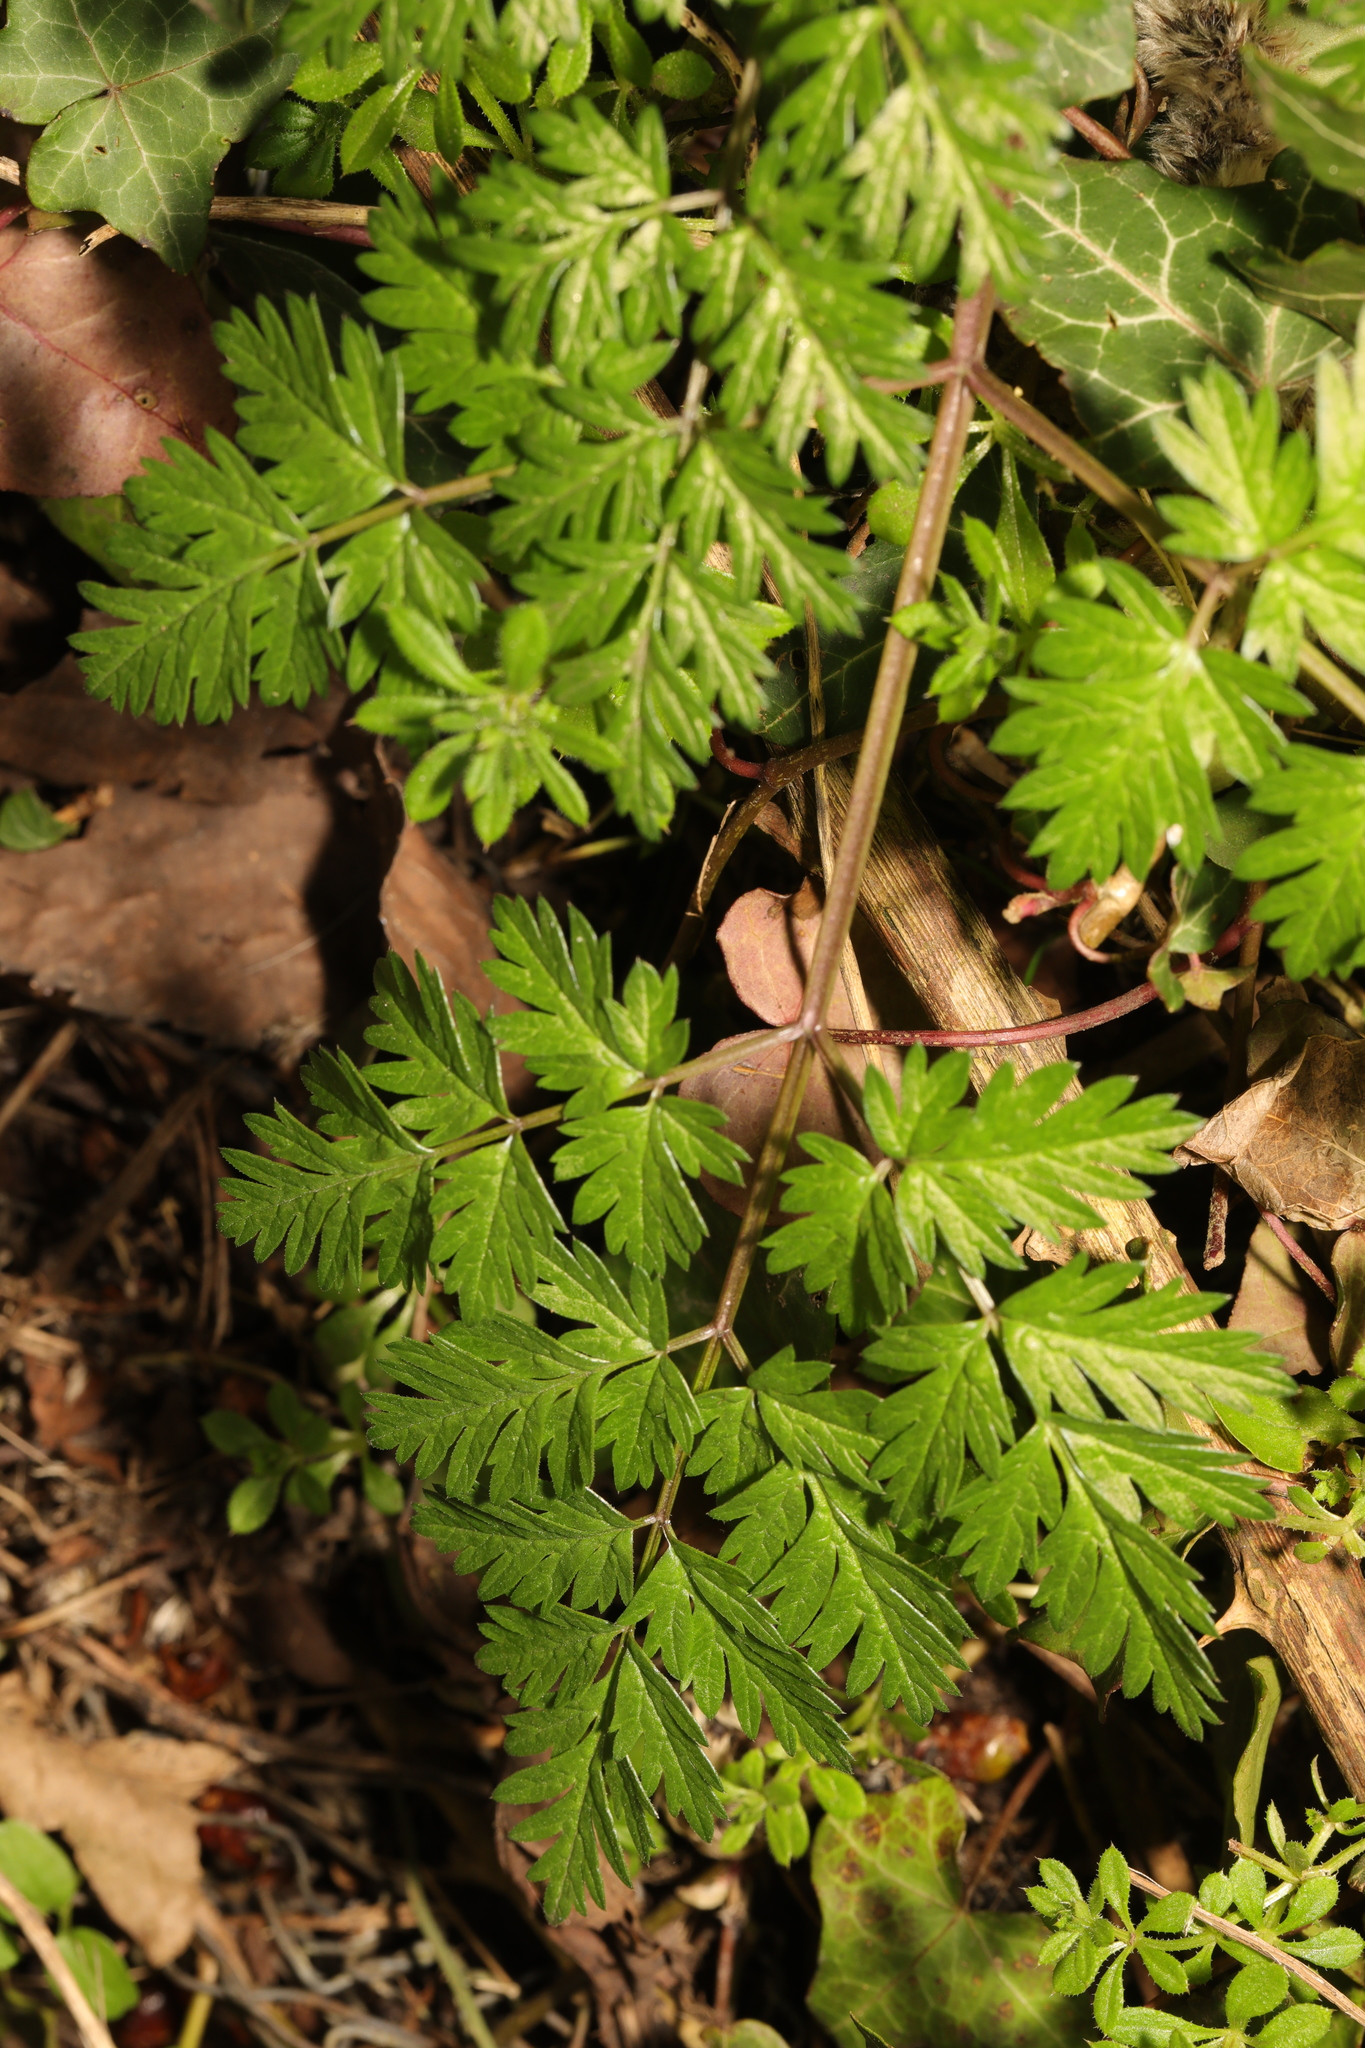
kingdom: Plantae
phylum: Tracheophyta
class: Magnoliopsida
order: Apiales
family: Apiaceae
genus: Anthriscus
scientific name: Anthriscus sylvestris
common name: Cow parsley
